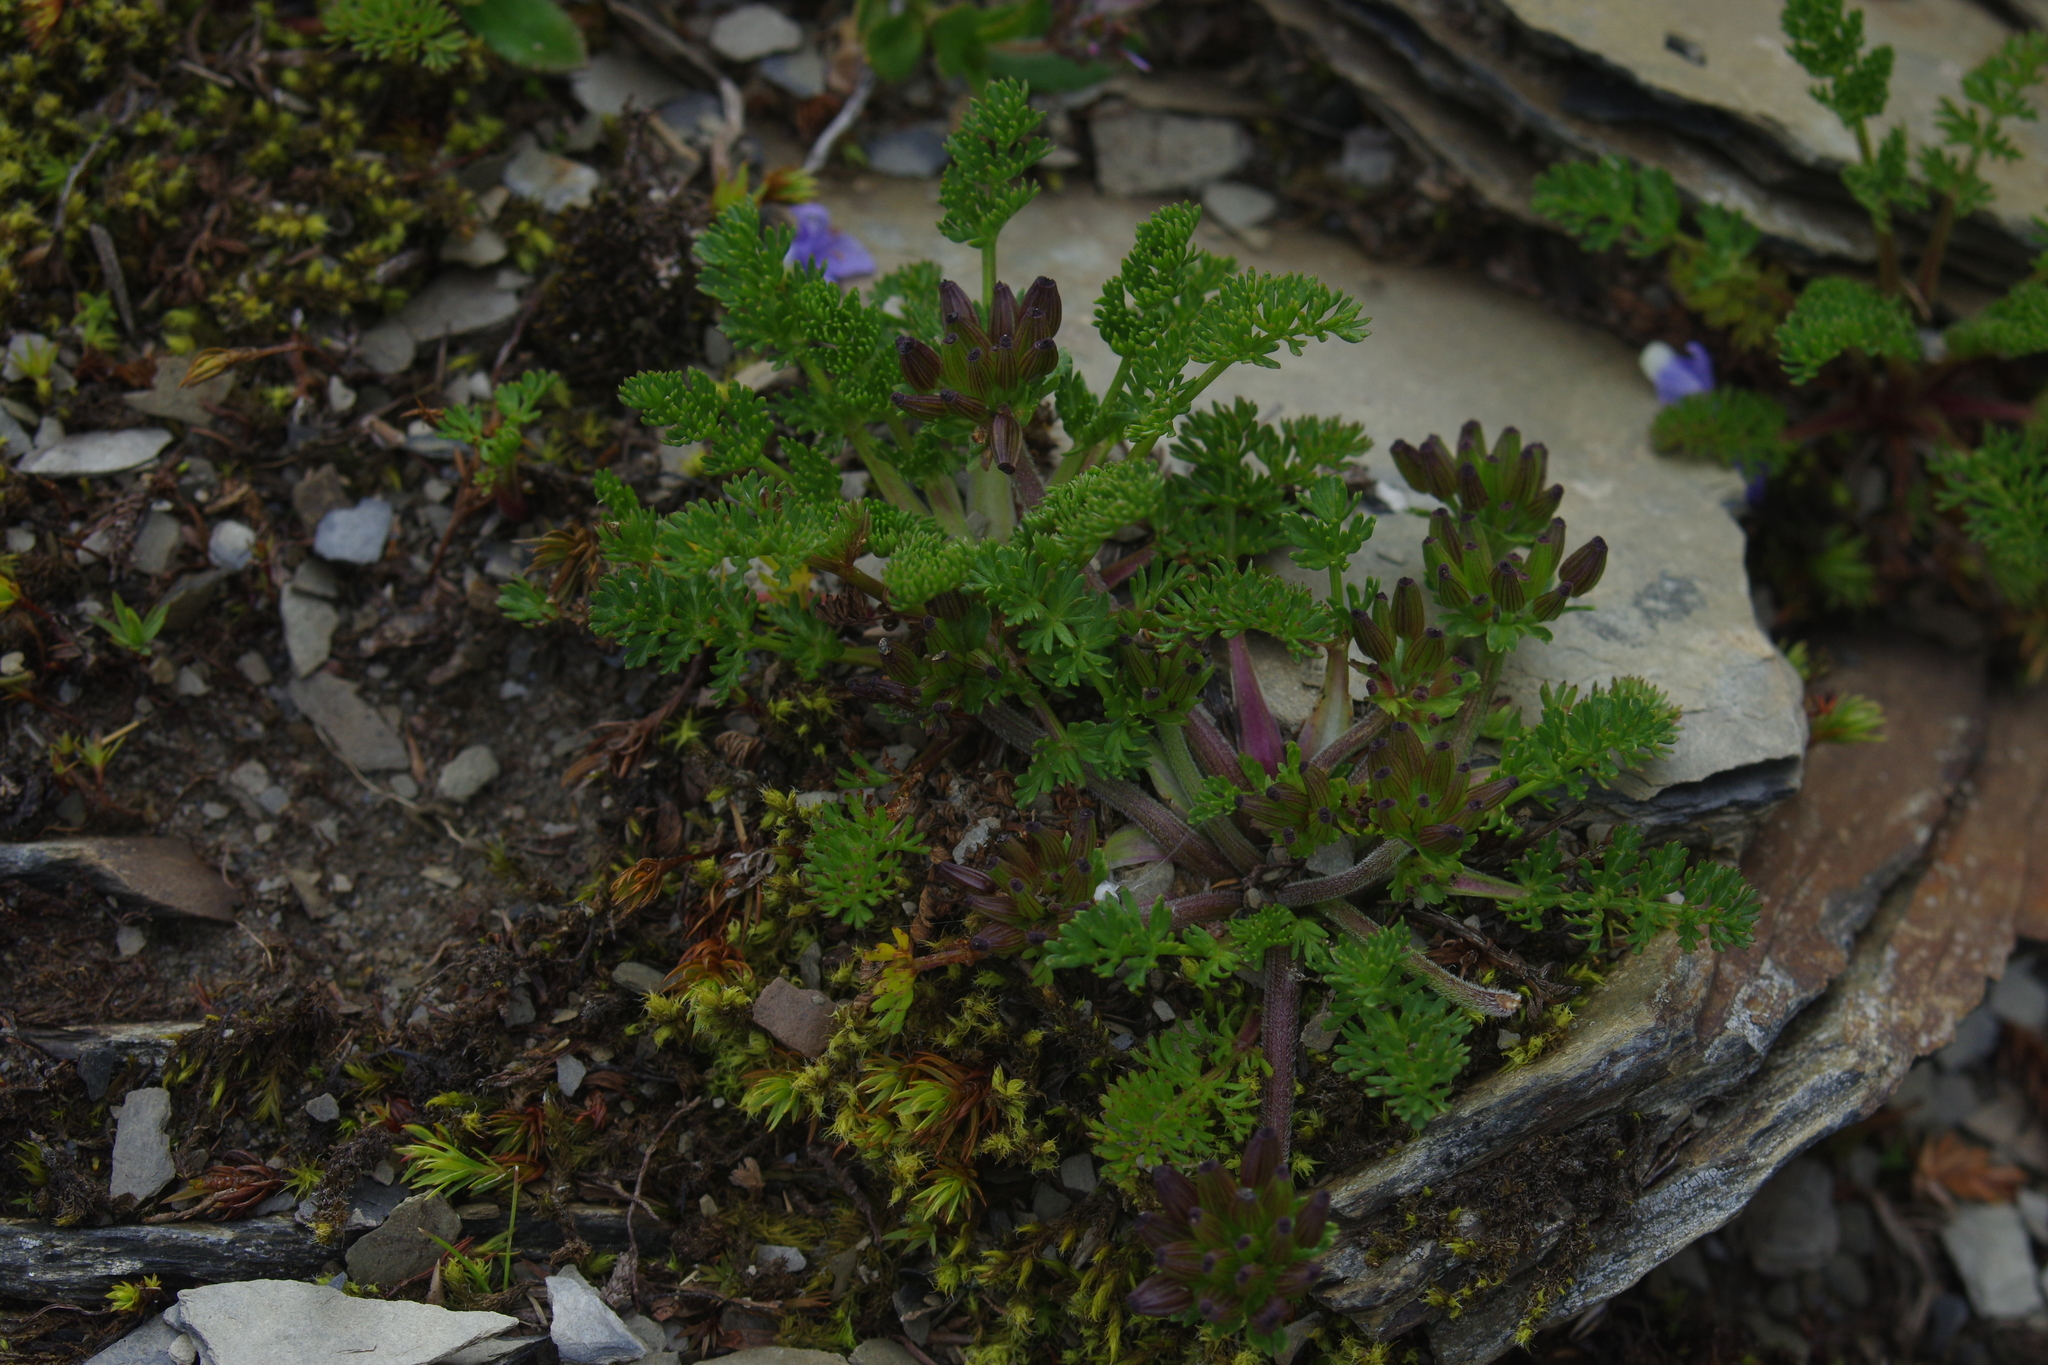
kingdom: Plantae
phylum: Tracheophyta
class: Magnoliopsida
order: Apiales
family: Apiaceae
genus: Chaerophyllum
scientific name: Chaerophyllum taiwanianum
